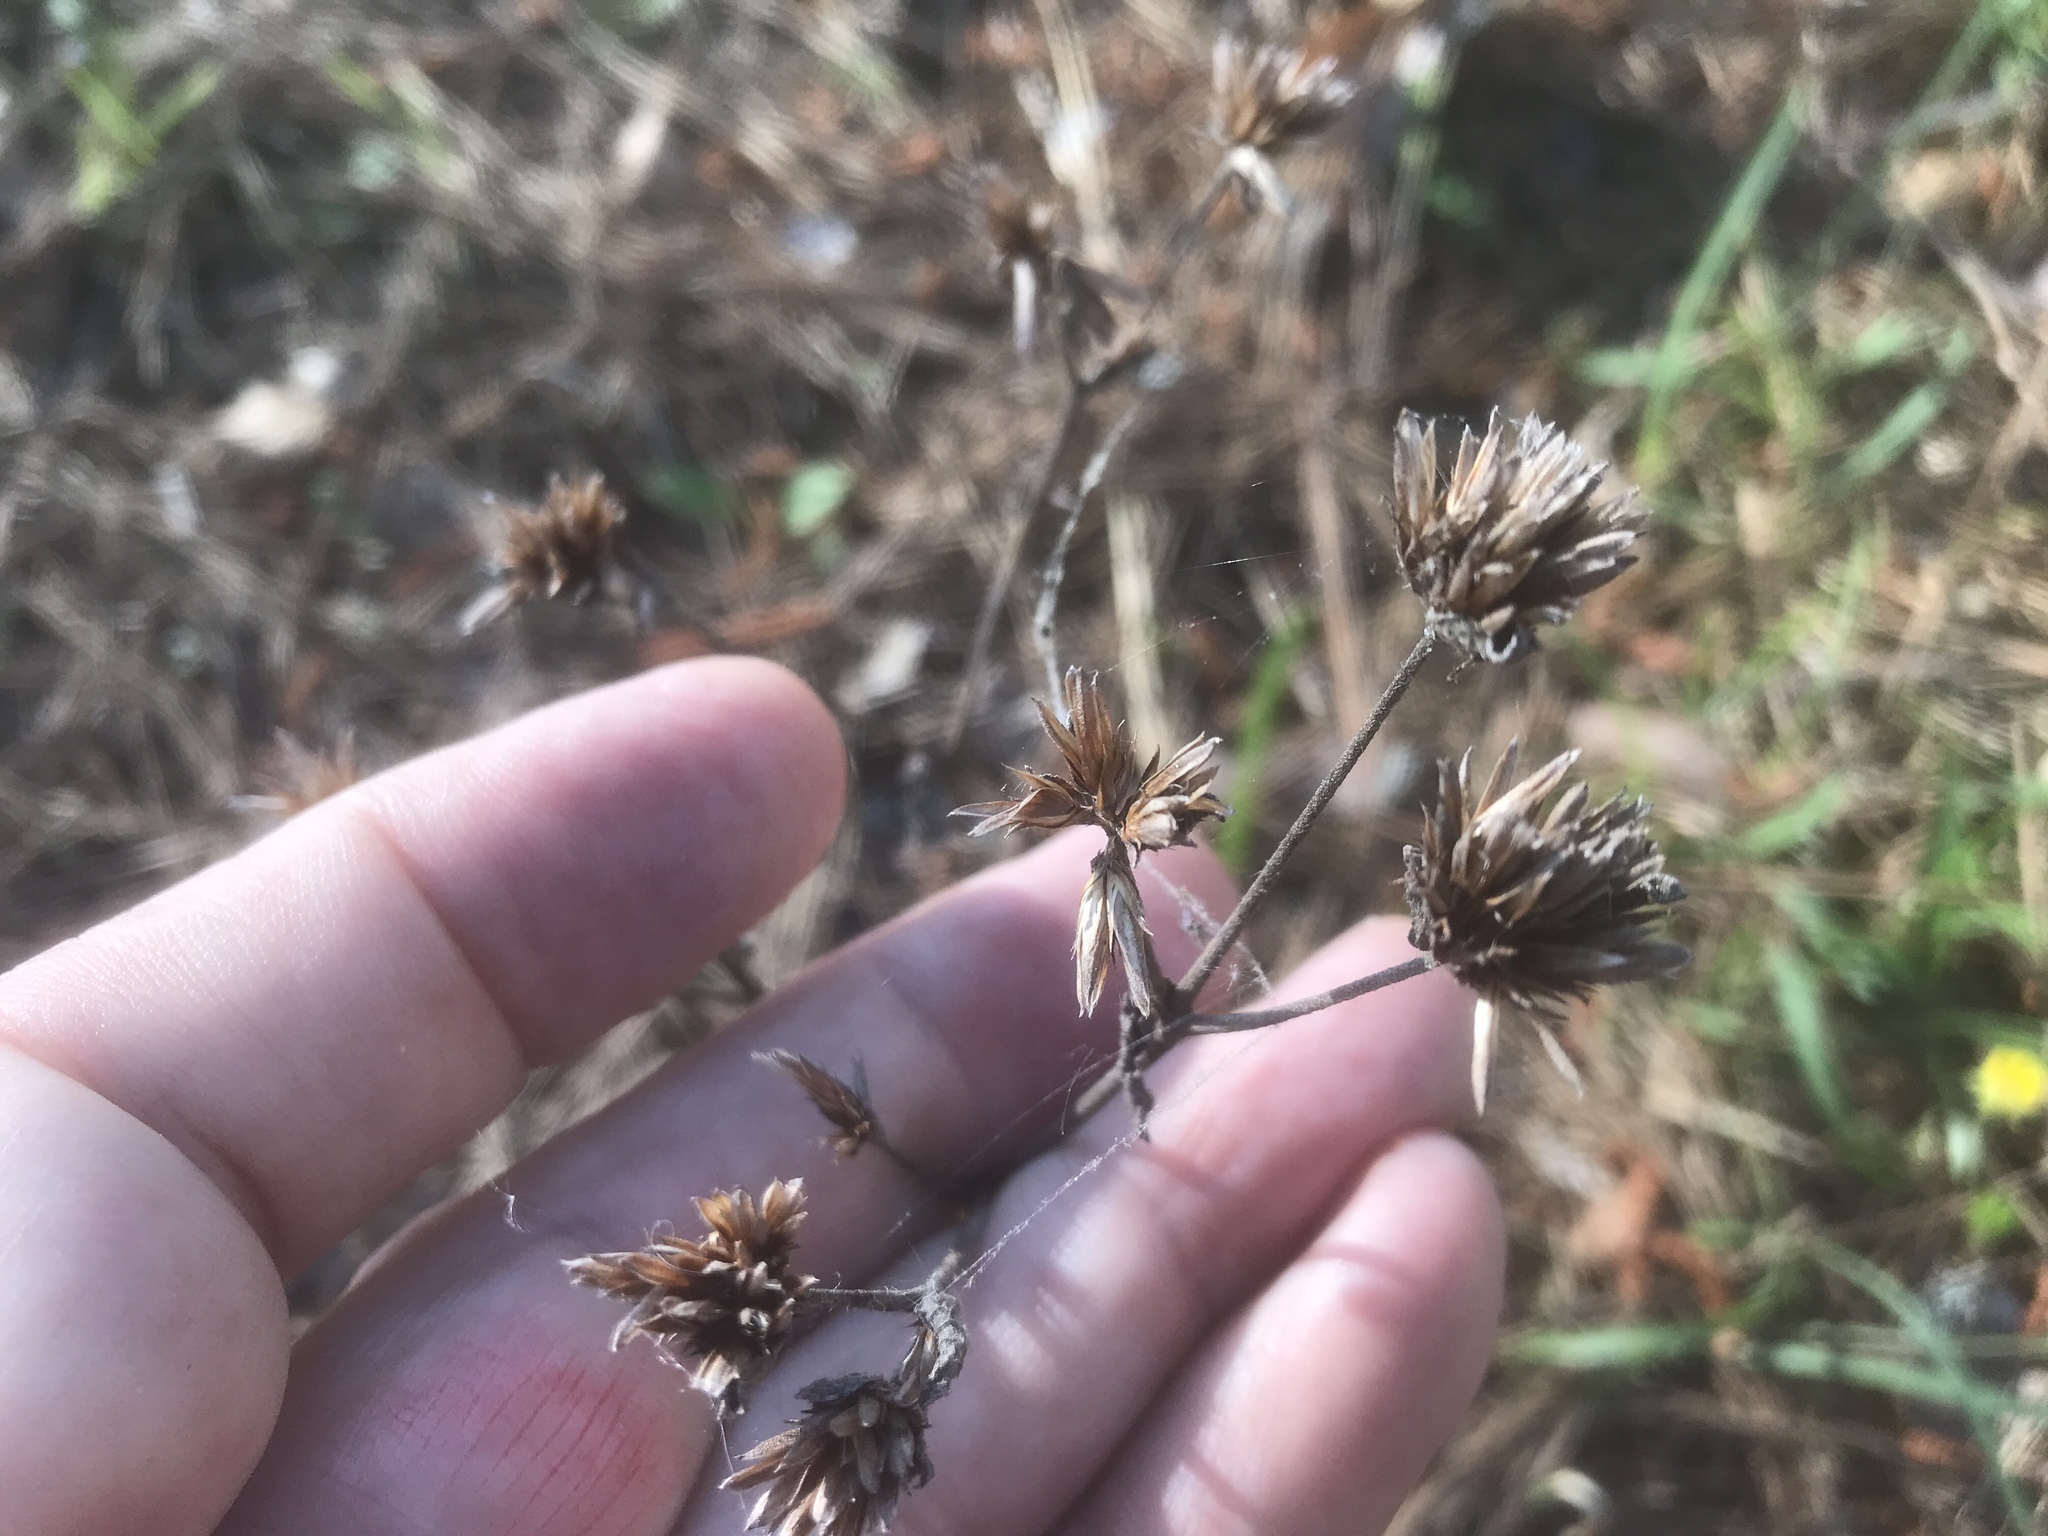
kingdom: Plantae
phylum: Tracheophyta
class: Magnoliopsida
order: Asterales
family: Asteraceae
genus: Elephantopus
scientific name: Elephantopus tomentosus
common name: Tobacco-weed
